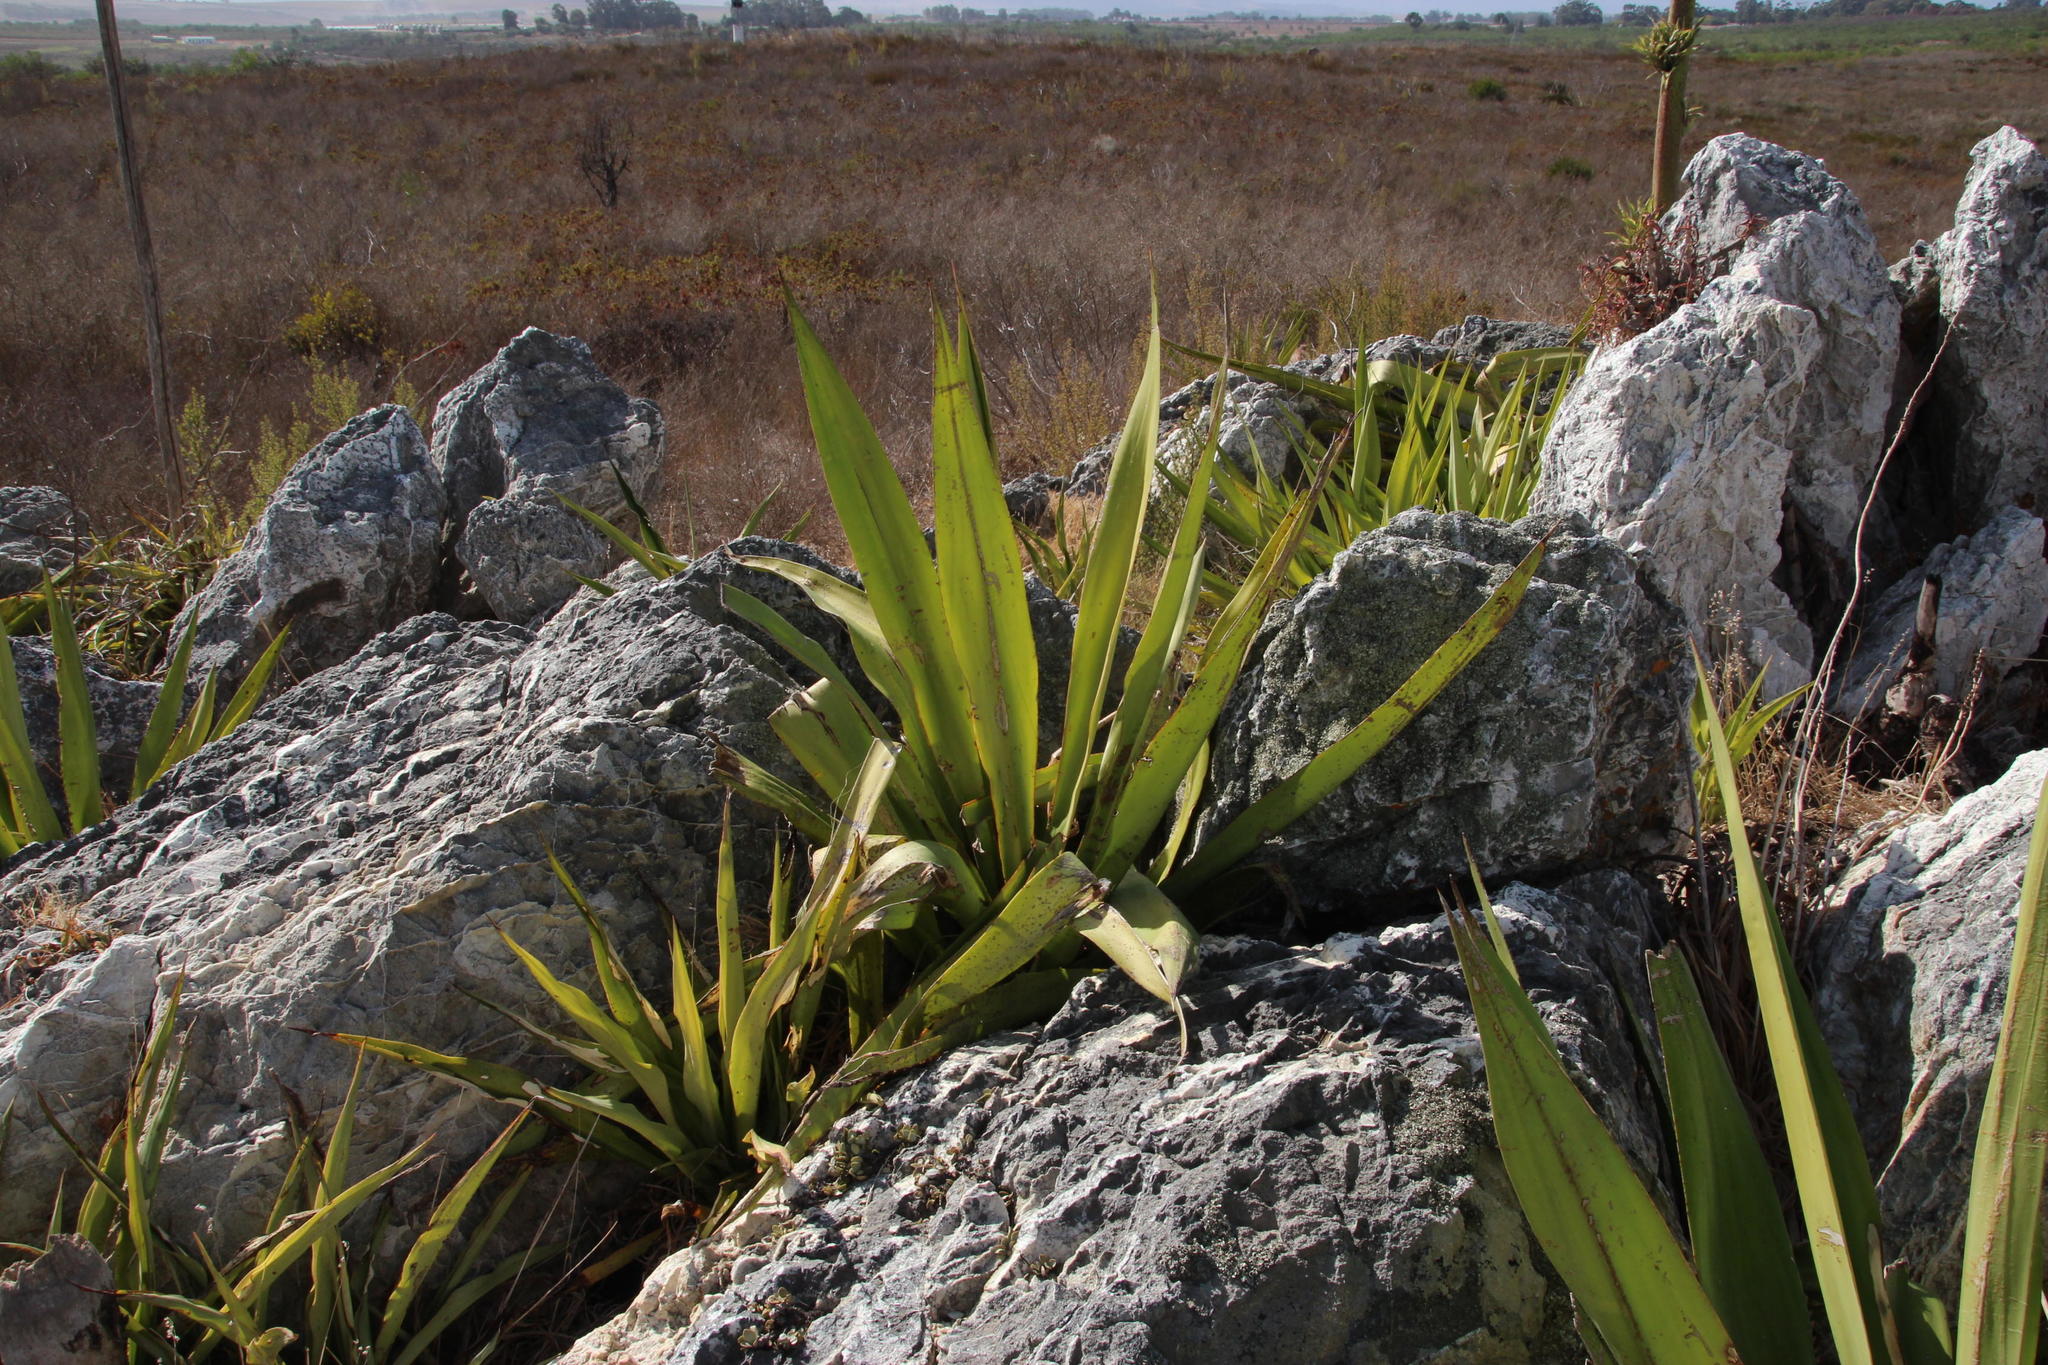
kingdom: Plantae
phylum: Tracheophyta
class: Liliopsida
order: Asparagales
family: Asparagaceae
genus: Furcraea
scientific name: Furcraea foetida
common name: Mauritius hemp
